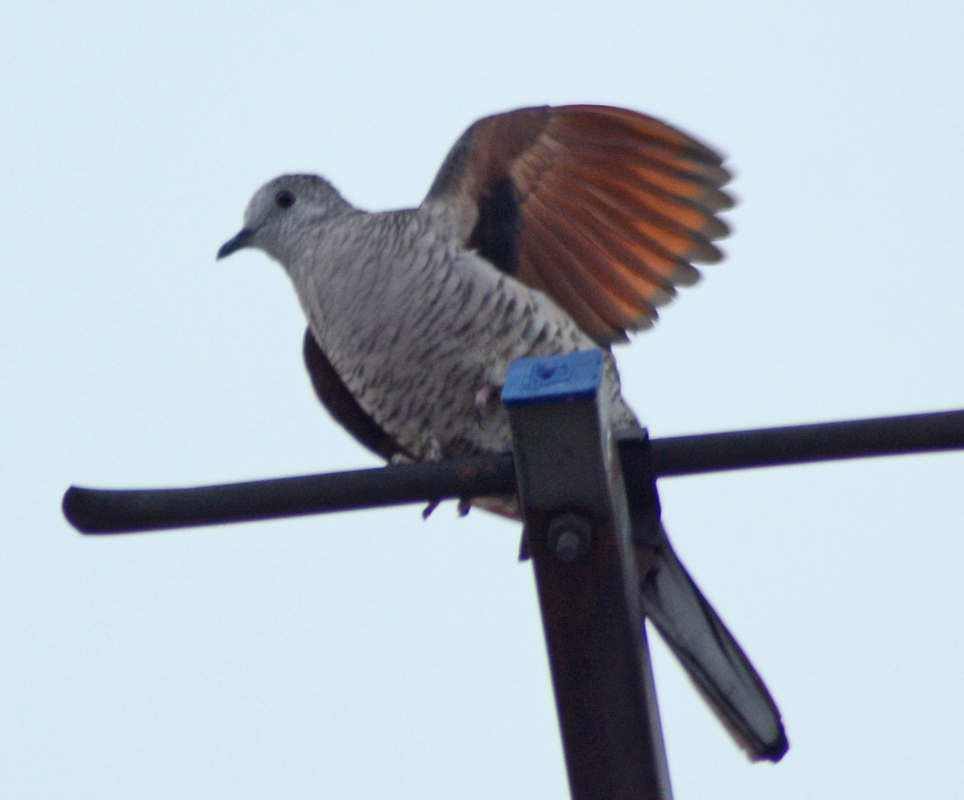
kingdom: Animalia
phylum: Chordata
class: Aves
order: Columbiformes
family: Columbidae
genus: Columbina
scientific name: Columbina inca
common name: Inca dove
